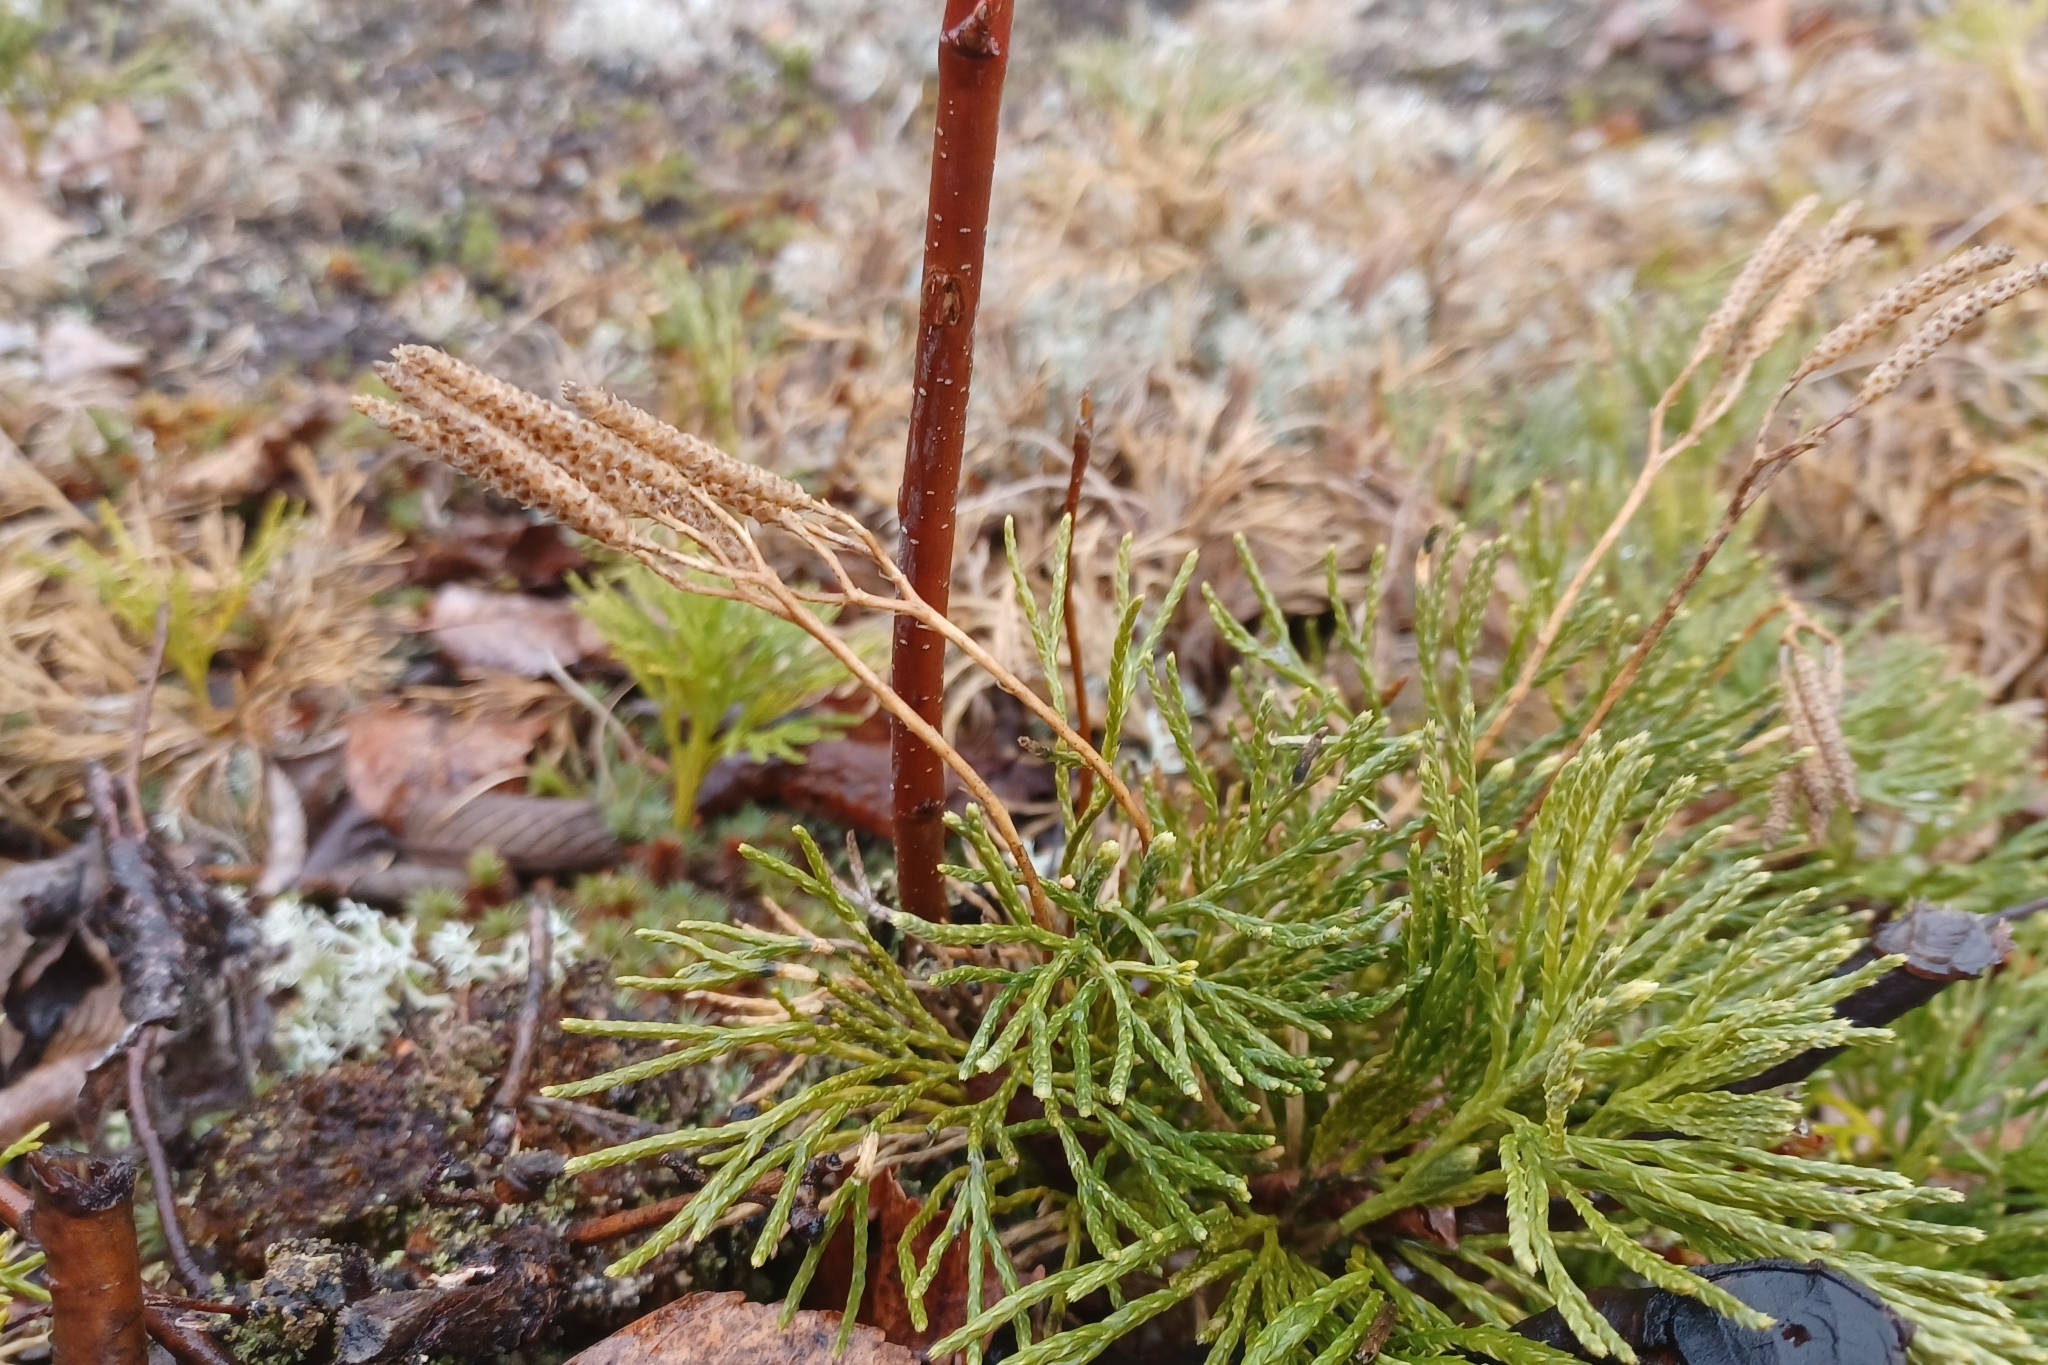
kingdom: Plantae
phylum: Tracheophyta
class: Lycopodiopsida
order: Lycopodiales
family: Lycopodiaceae
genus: Diphasiastrum
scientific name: Diphasiastrum tristachyum
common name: Blue ground-cedar
